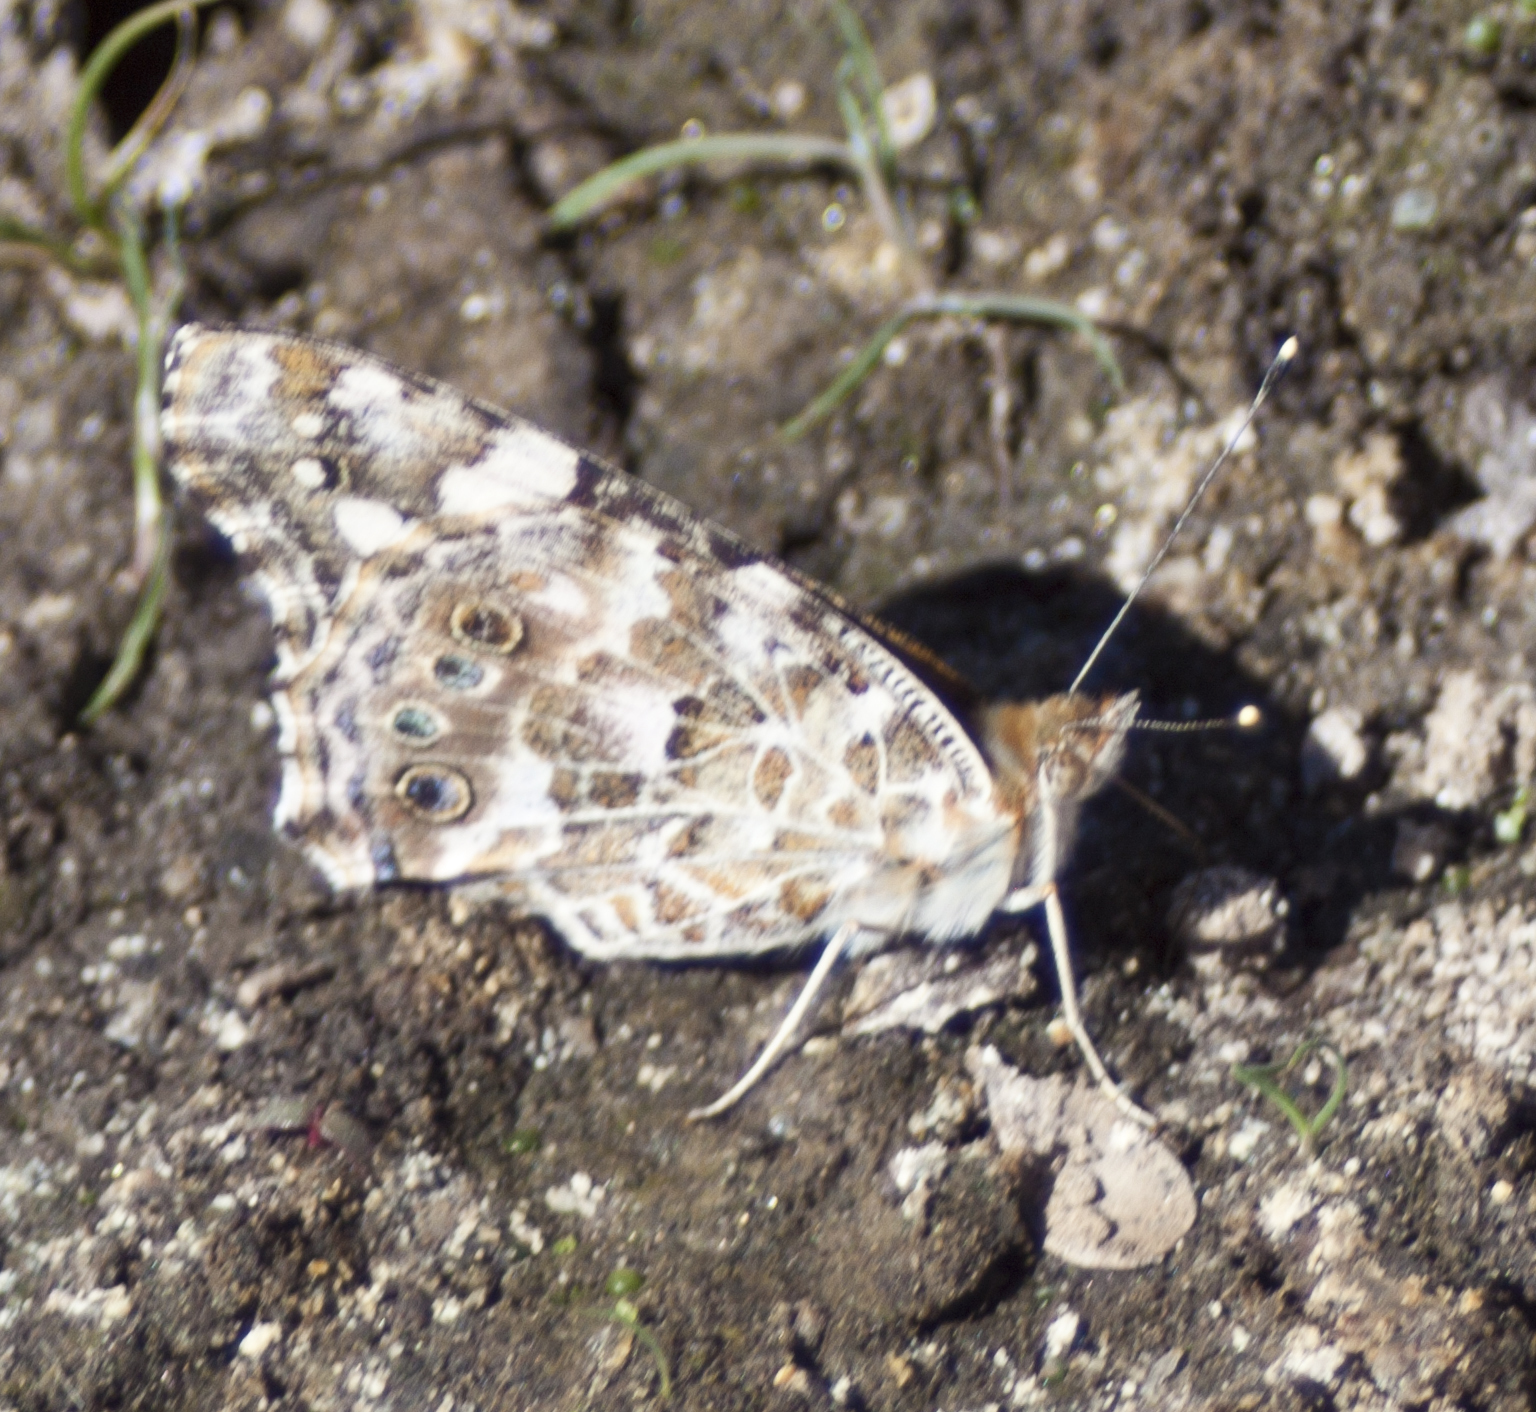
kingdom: Animalia
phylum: Arthropoda
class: Insecta
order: Lepidoptera
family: Nymphalidae
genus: Vanessa
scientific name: Vanessa cardui
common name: Painted lady
